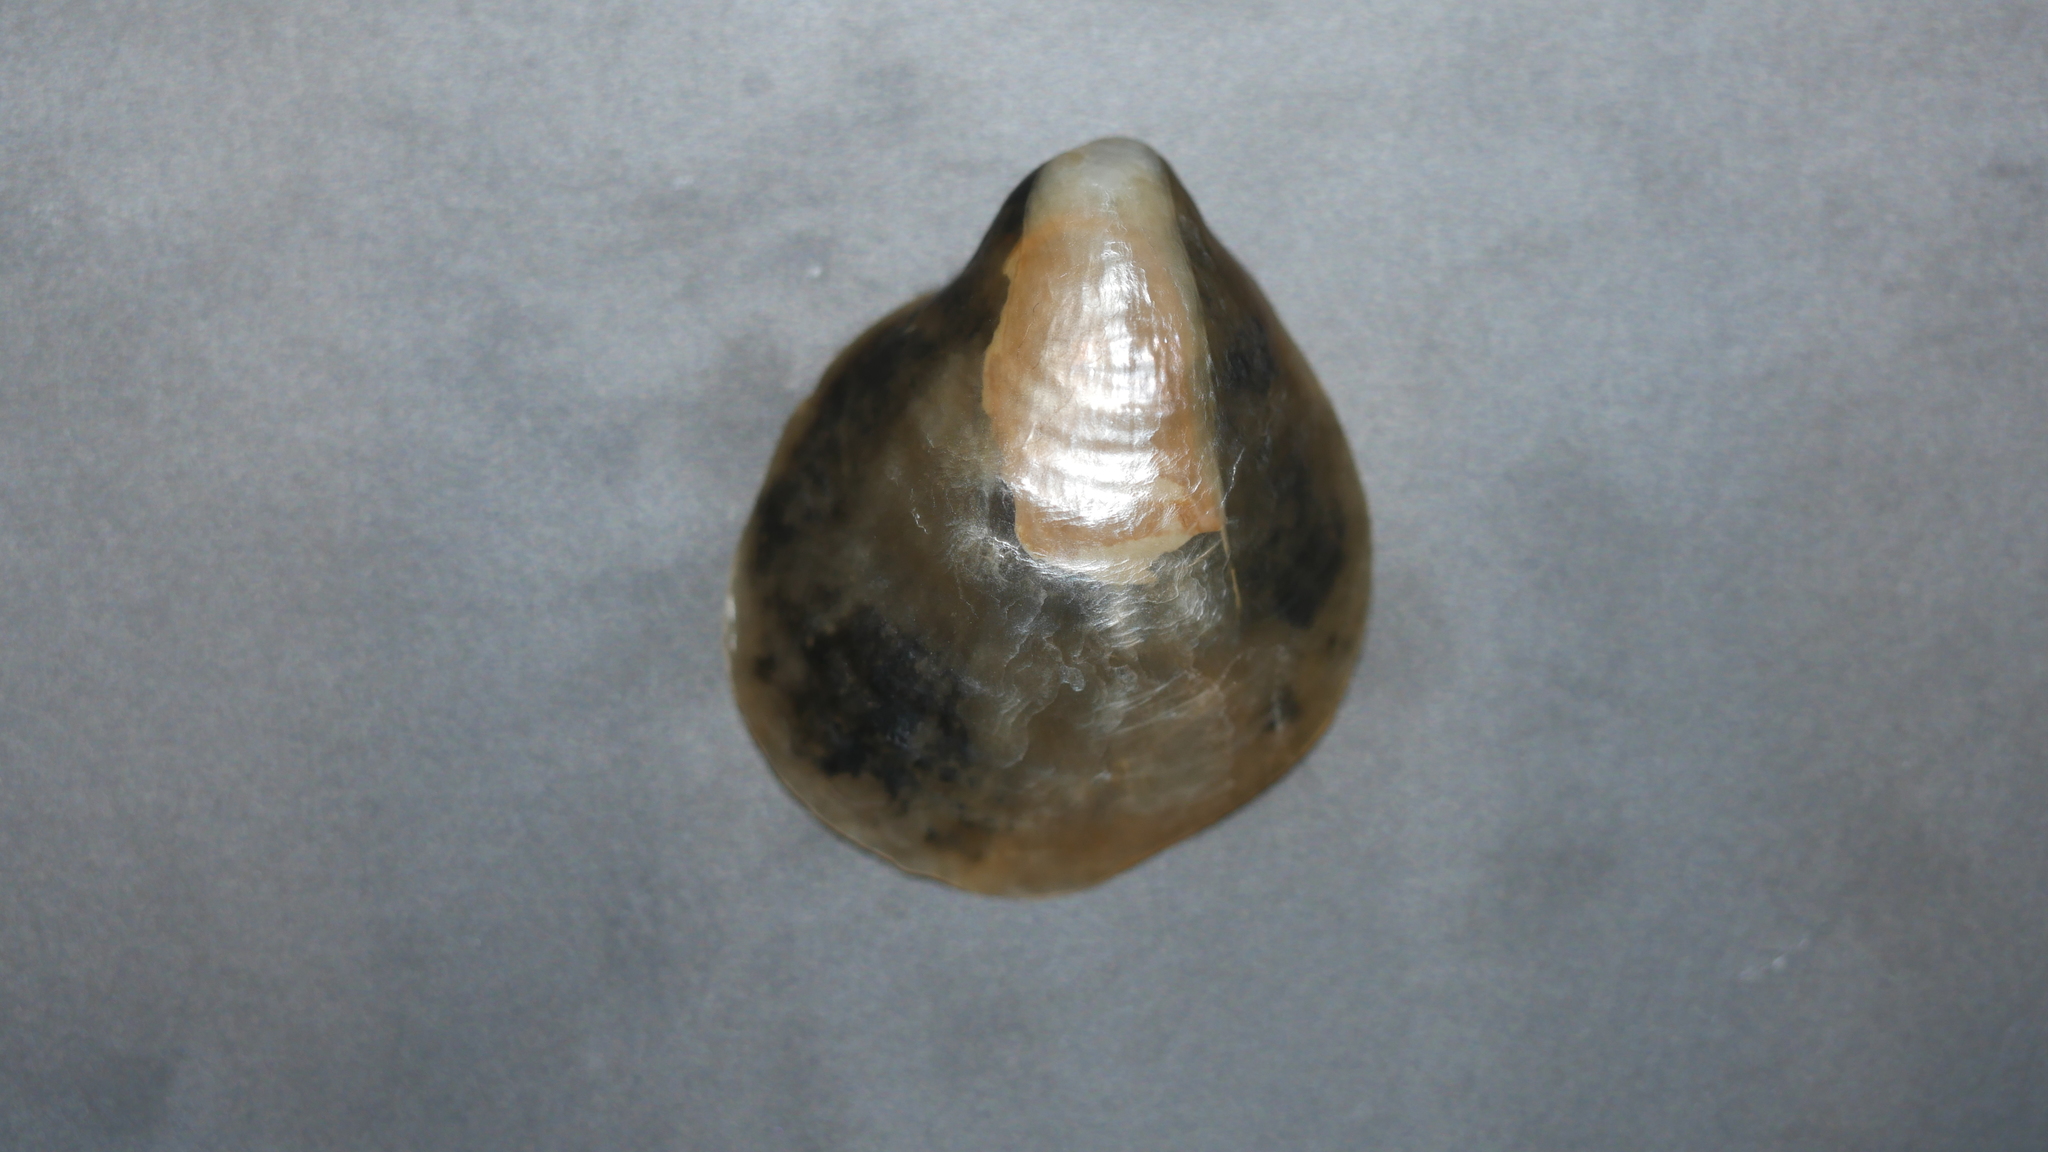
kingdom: Animalia
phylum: Mollusca
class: Bivalvia
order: Pectinida
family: Anomiidae
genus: Anomia
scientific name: Anomia simplex
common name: Common jingle shell
